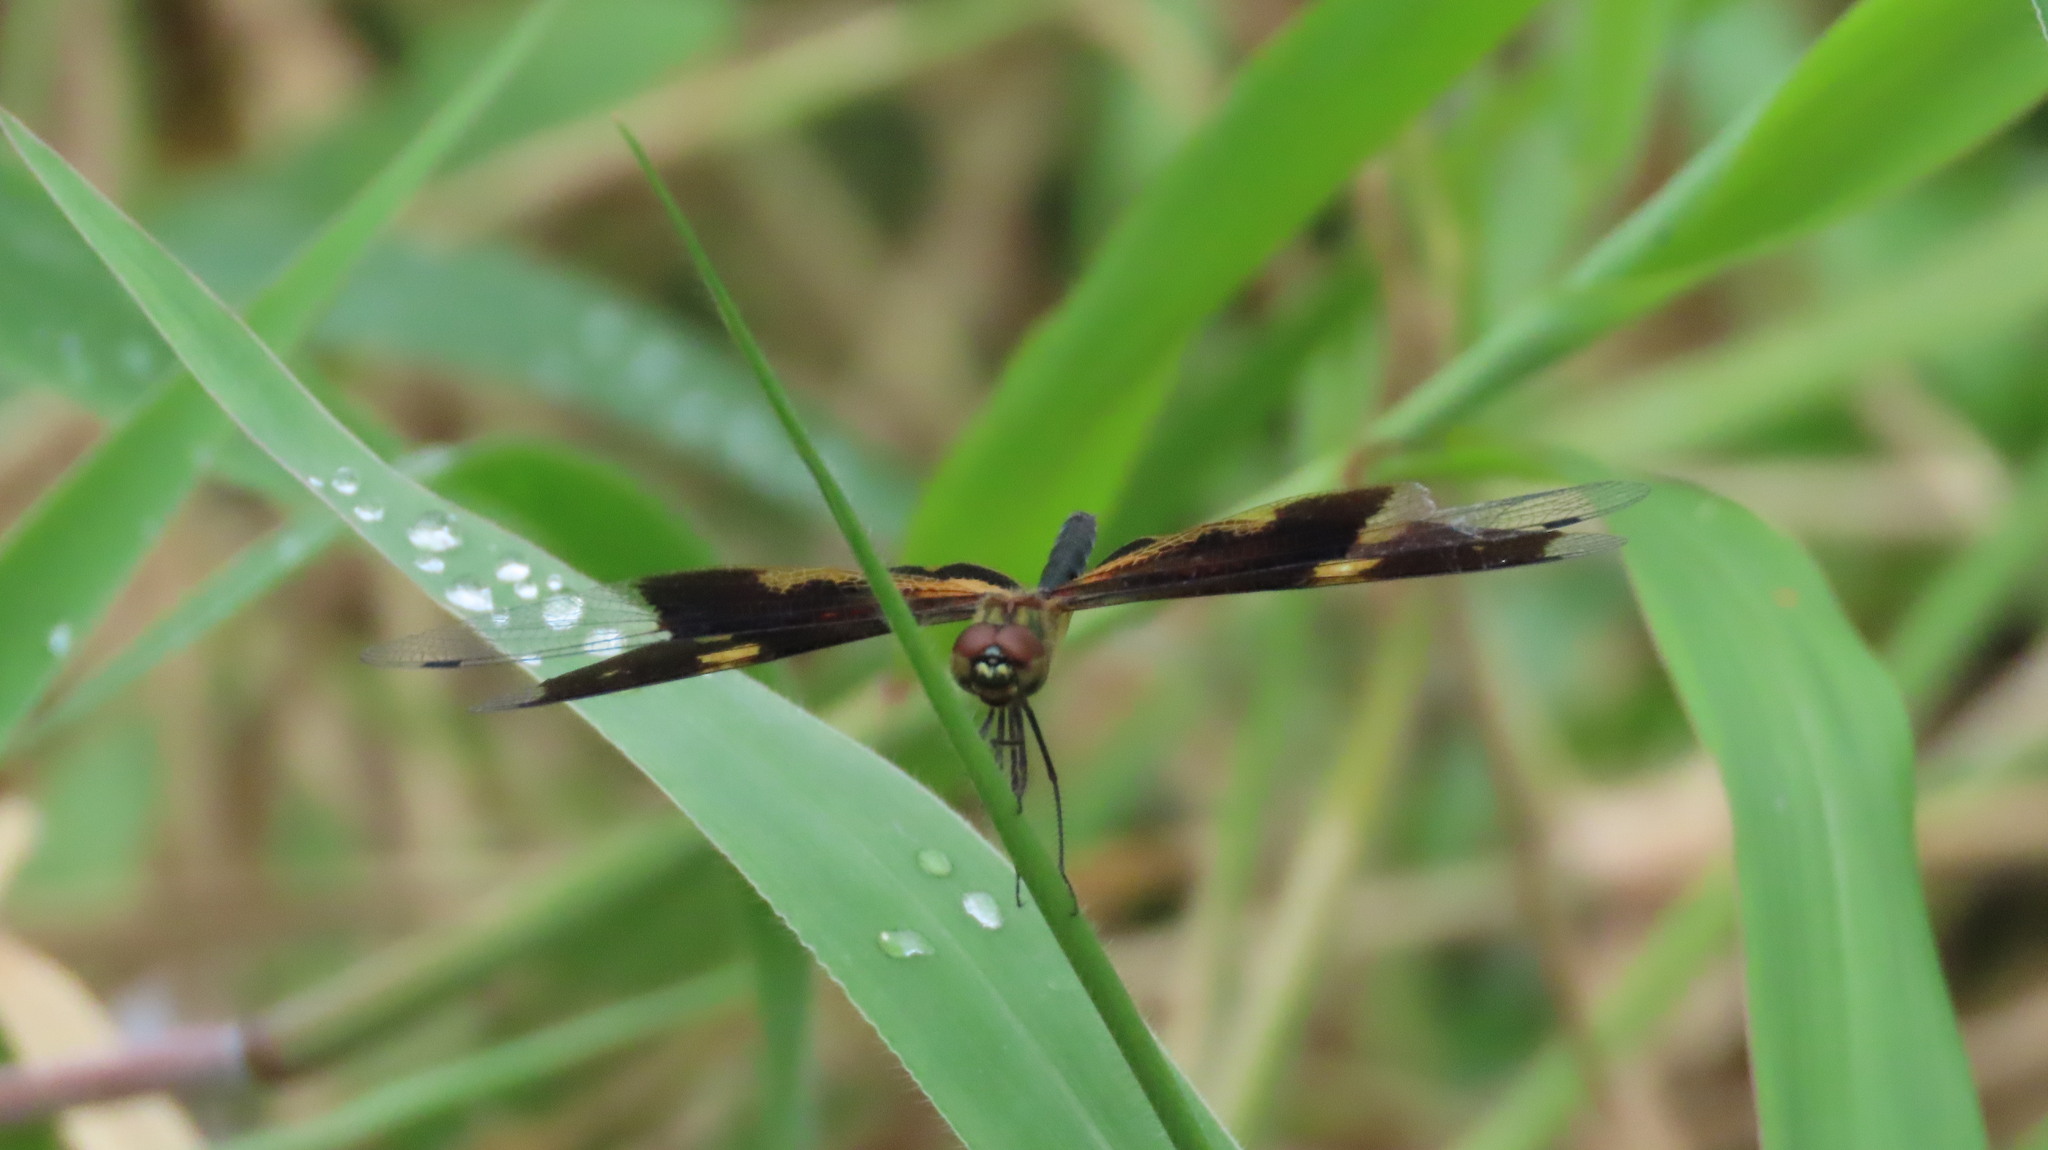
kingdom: Animalia
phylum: Arthropoda
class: Insecta
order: Odonata
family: Libellulidae
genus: Rhyothemis
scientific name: Rhyothemis variegata
